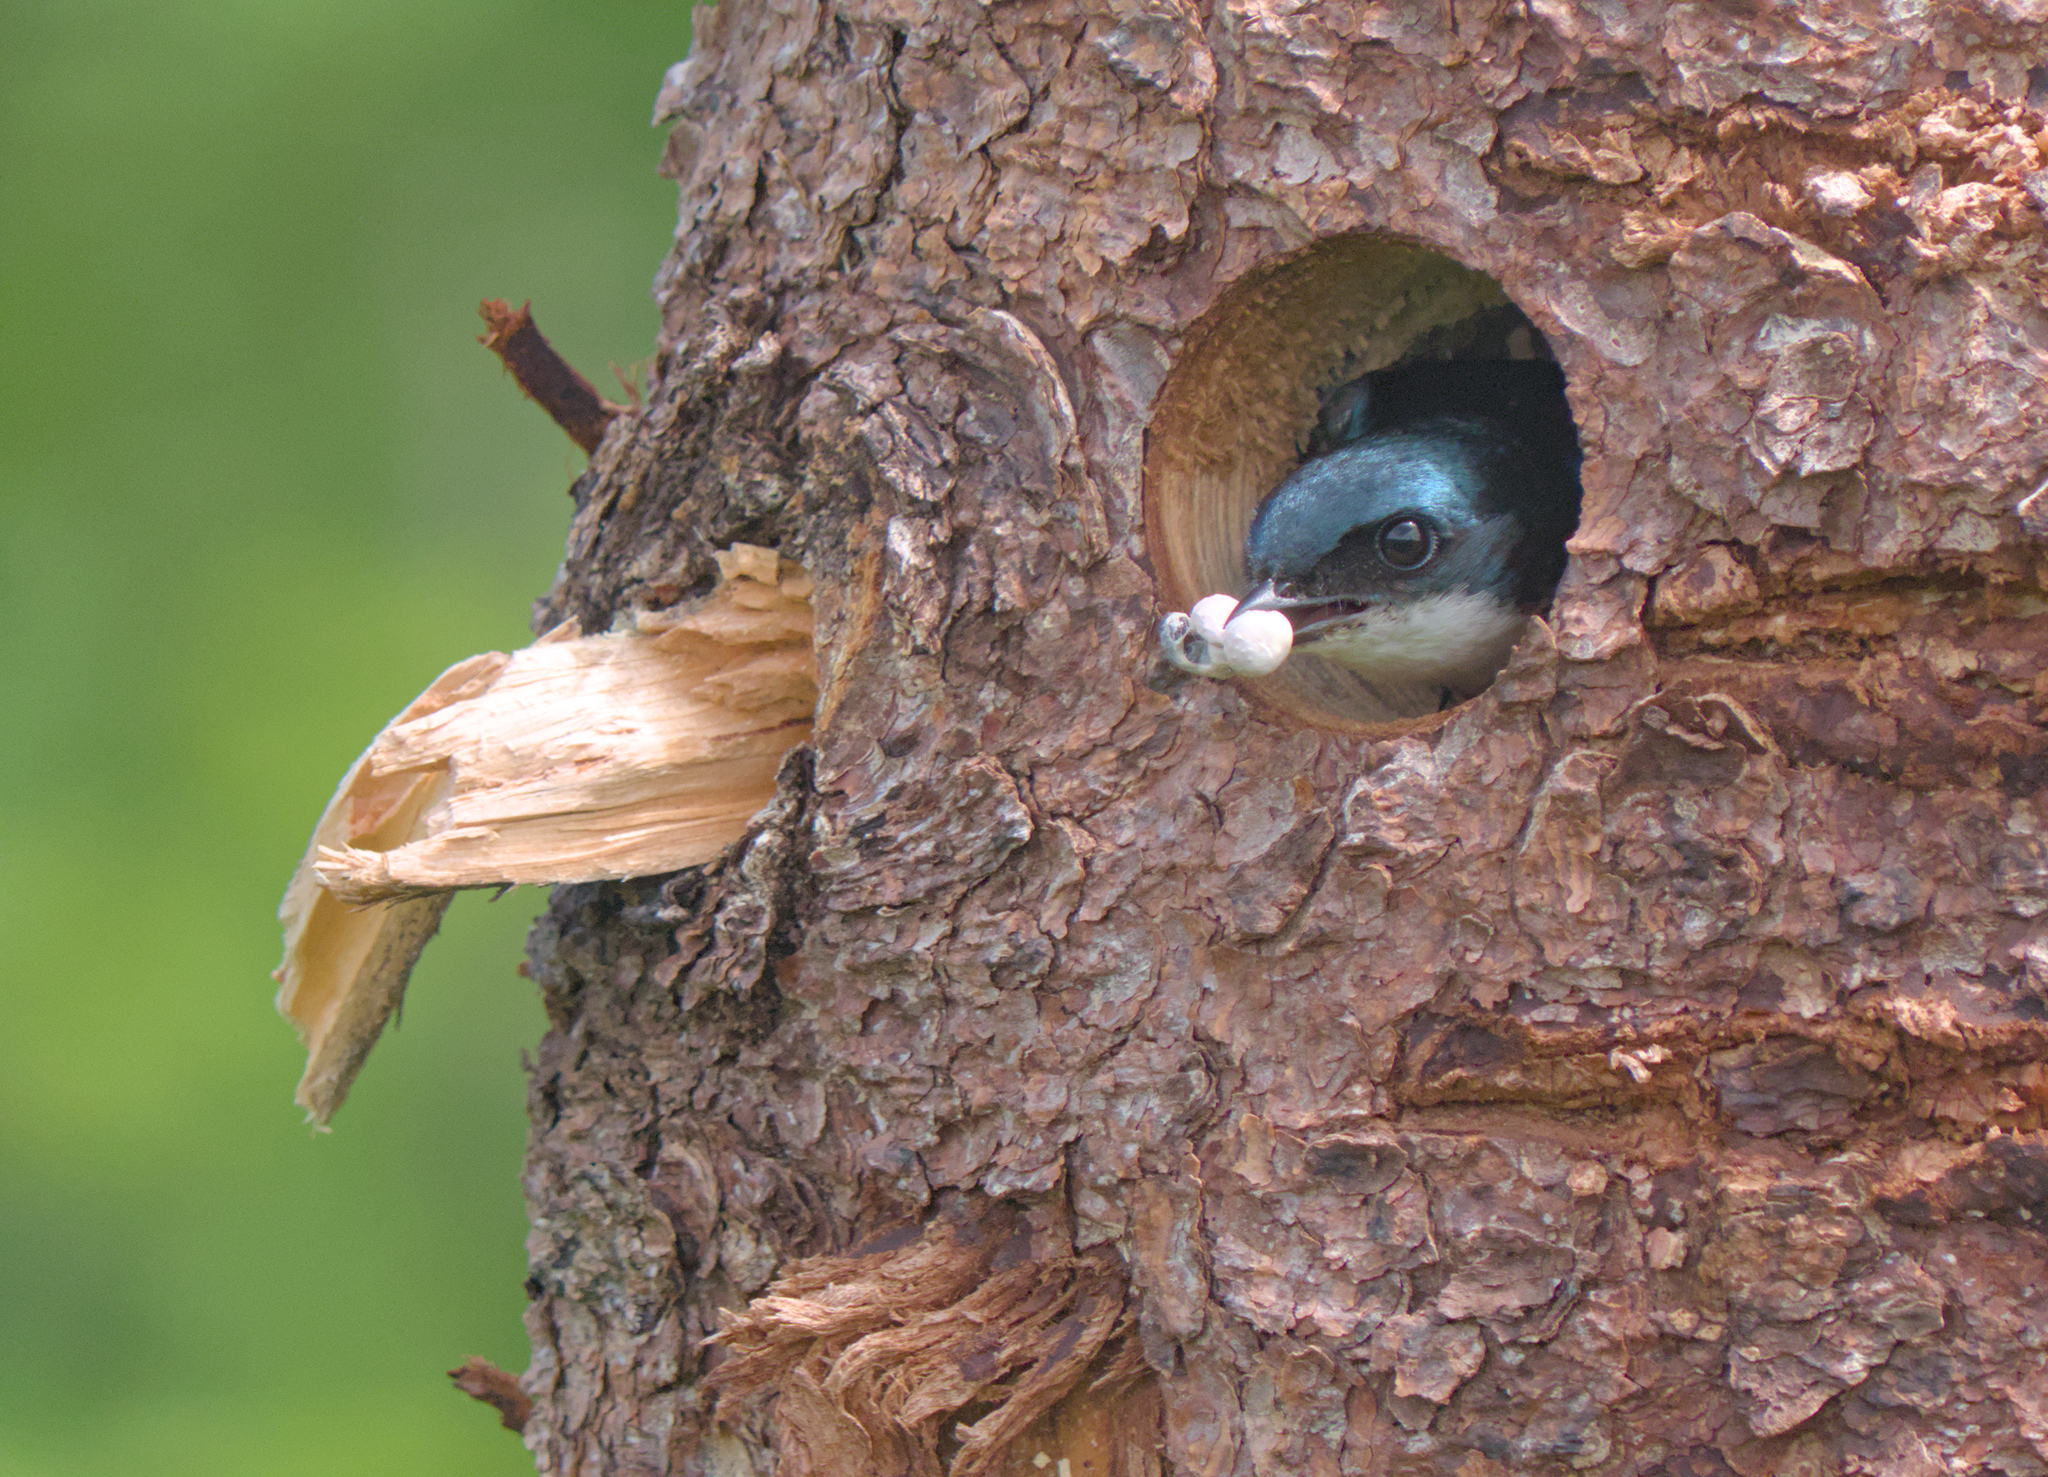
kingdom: Animalia
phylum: Chordata
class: Aves
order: Passeriformes
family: Hirundinidae
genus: Tachycineta
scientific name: Tachycineta bicolor
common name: Tree swallow
